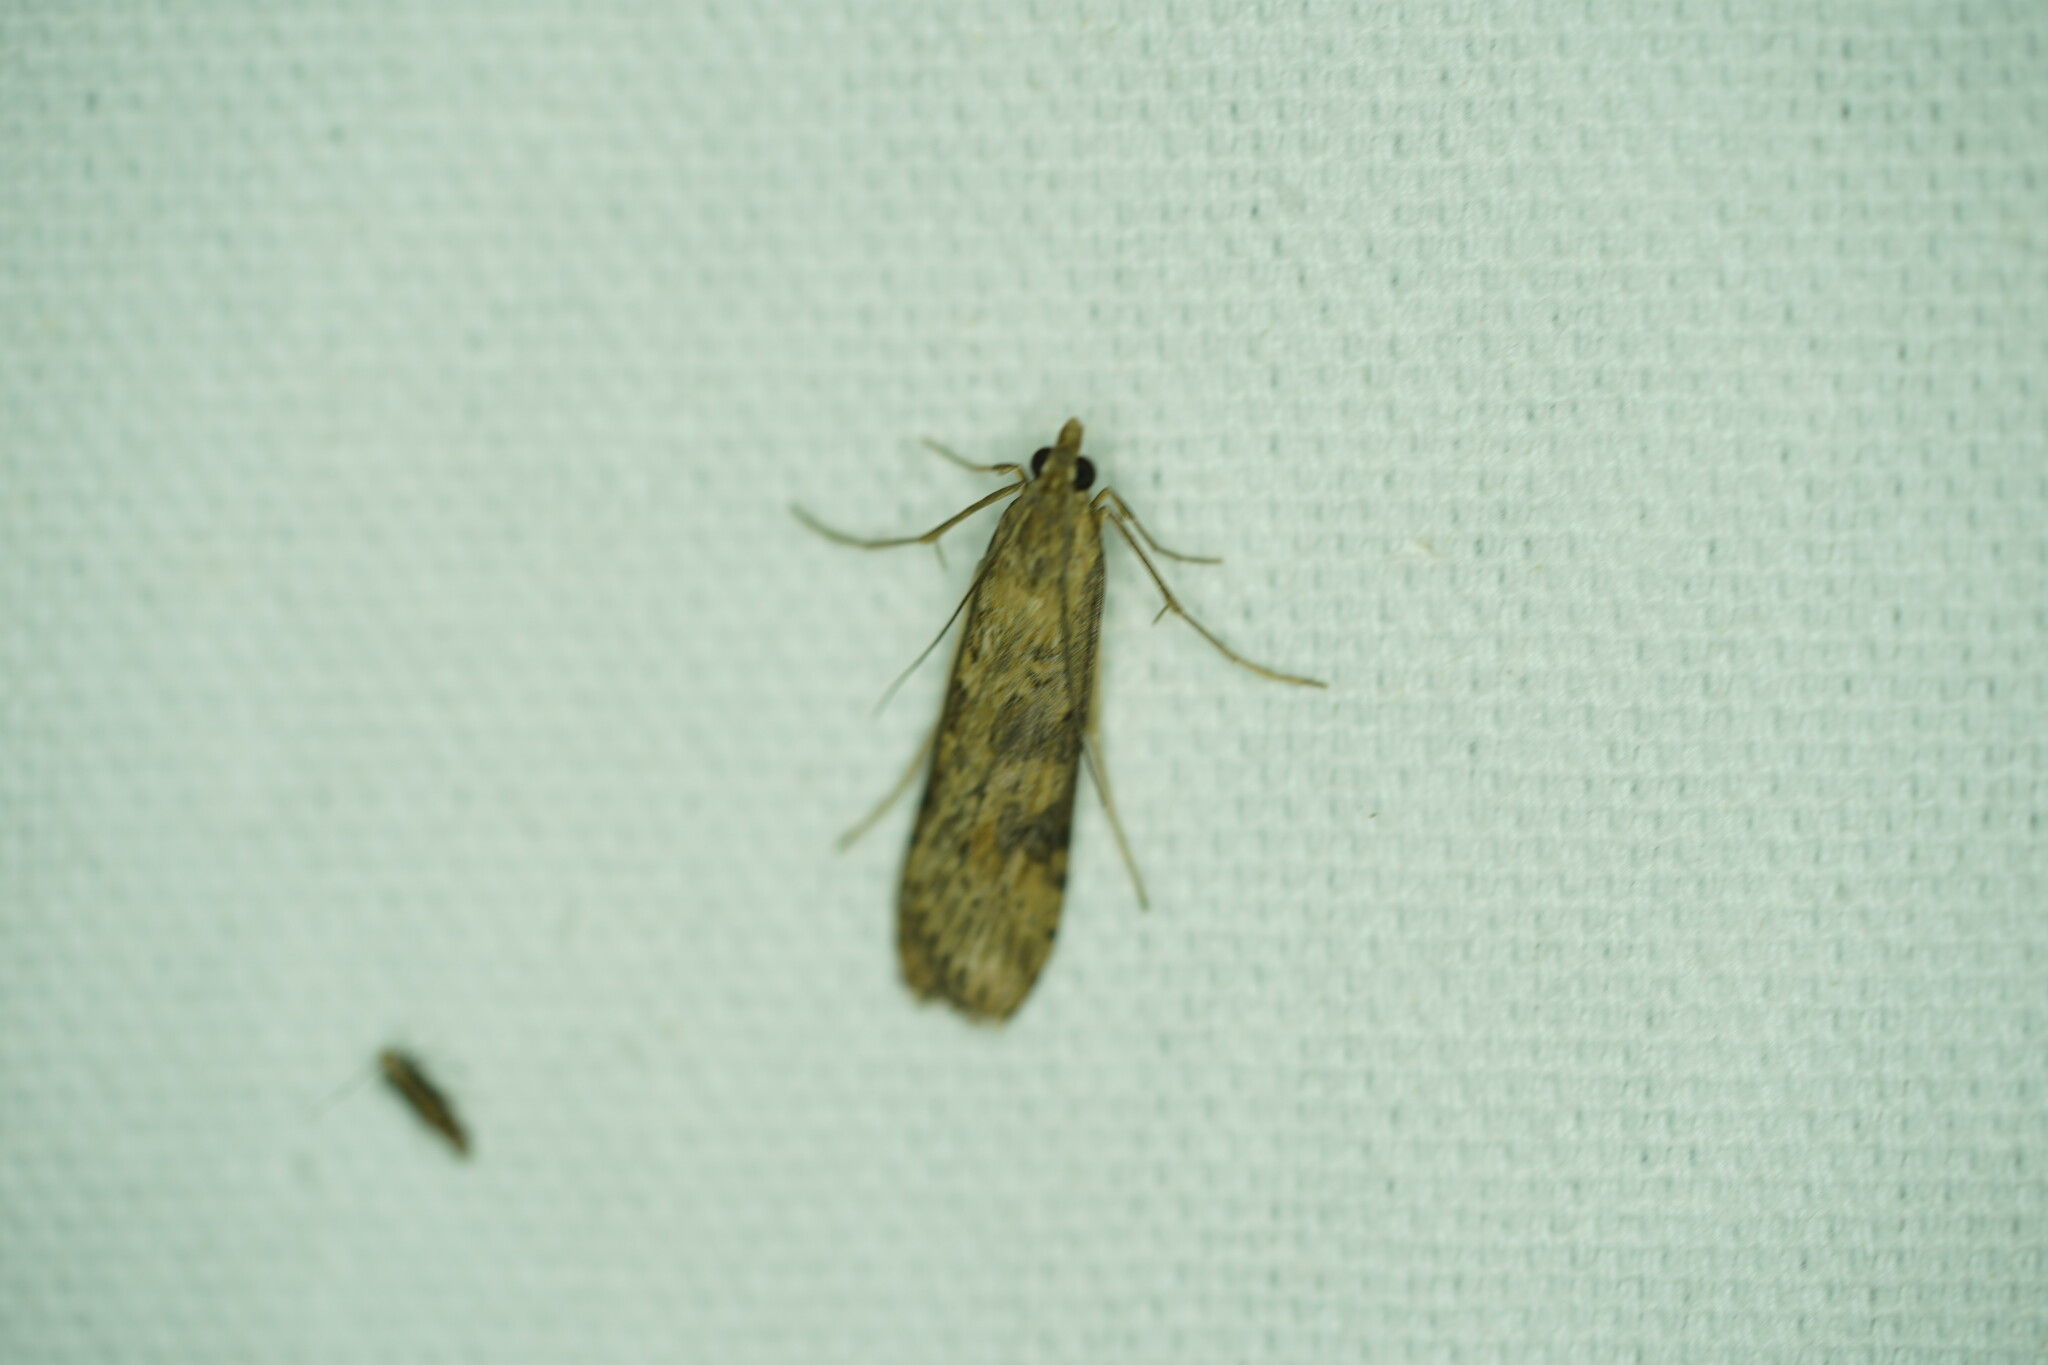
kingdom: Animalia
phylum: Arthropoda
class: Insecta
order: Lepidoptera
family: Crambidae
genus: Nomophila
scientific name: Nomophila nearctica
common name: American rush veneer
